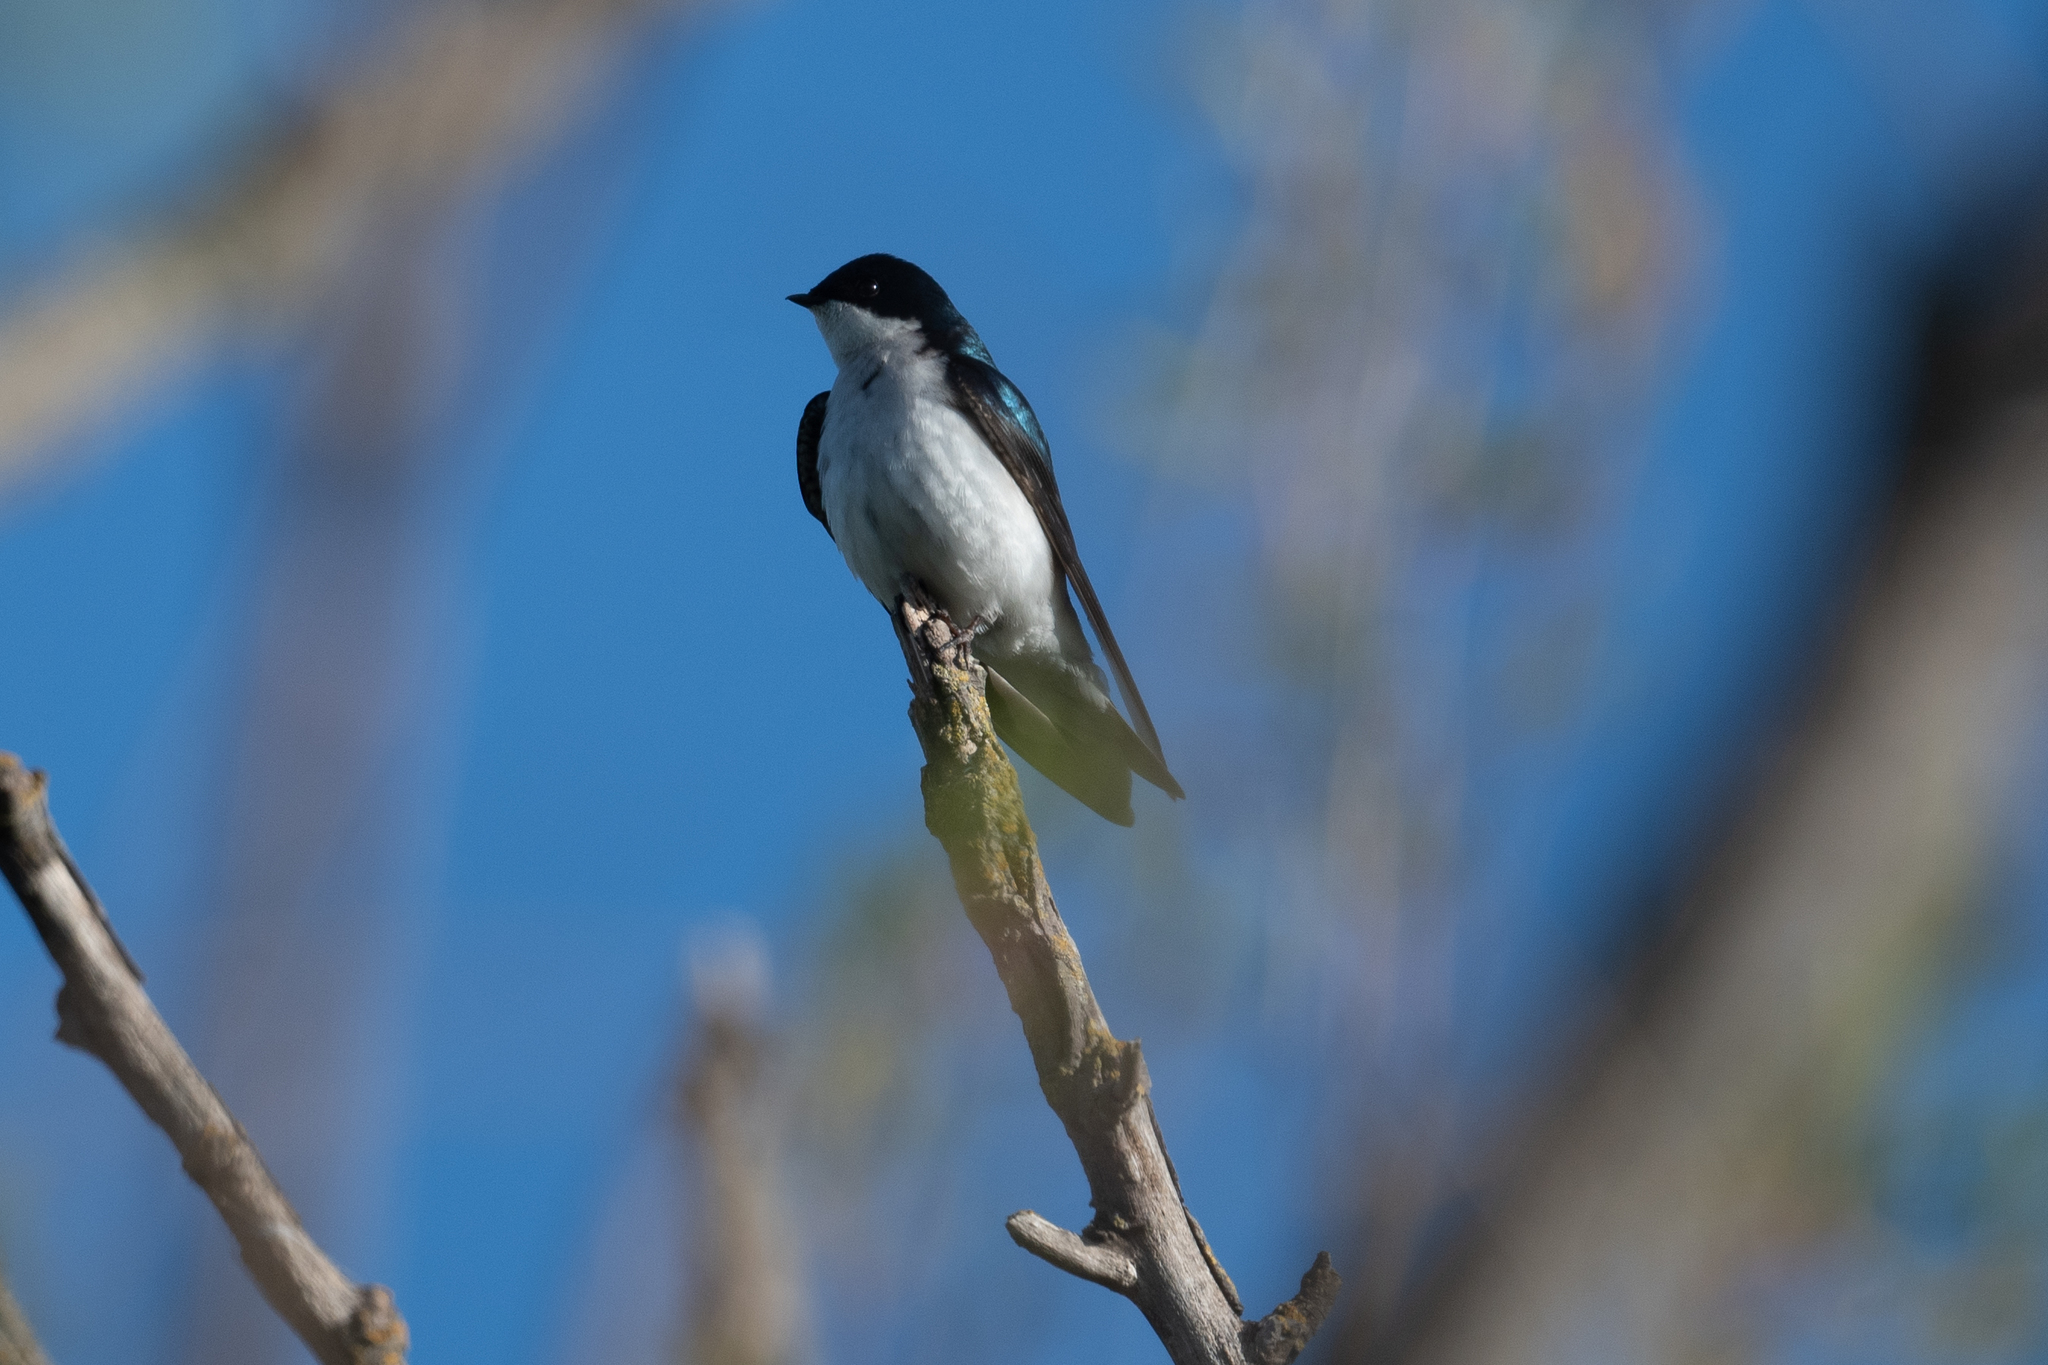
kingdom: Animalia
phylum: Chordata
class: Aves
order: Passeriformes
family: Hirundinidae
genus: Tachycineta
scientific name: Tachycineta bicolor
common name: Tree swallow
